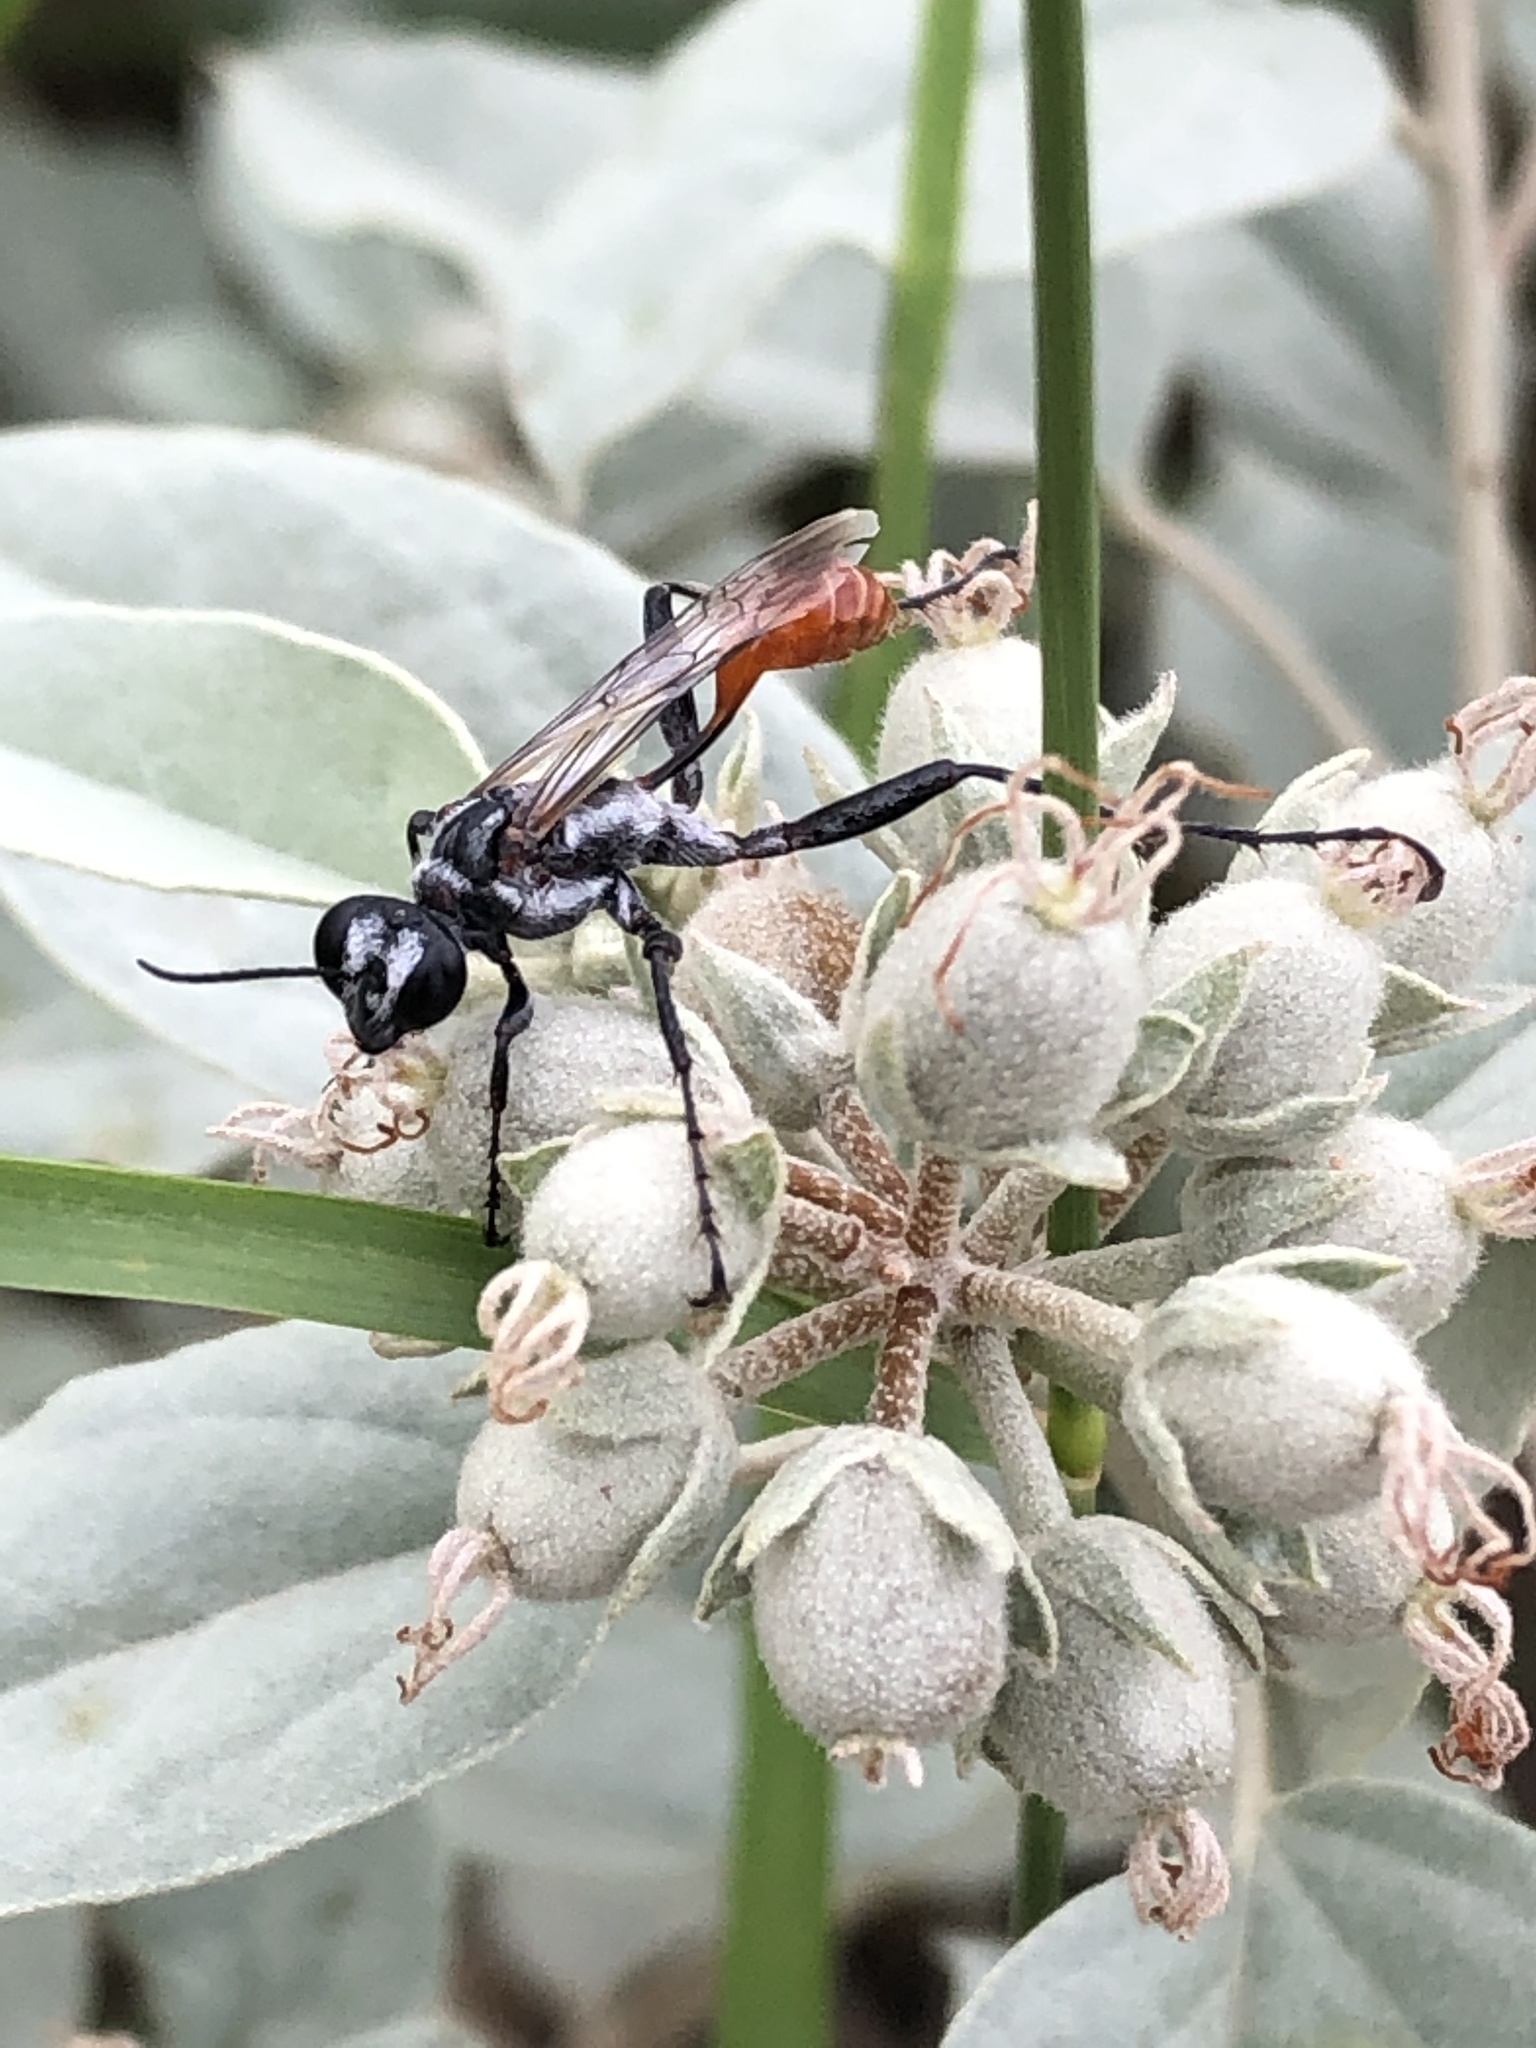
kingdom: Animalia
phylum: Arthropoda
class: Insecta
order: Hymenoptera
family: Sphecidae
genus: Prionyx
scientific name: Prionyx
